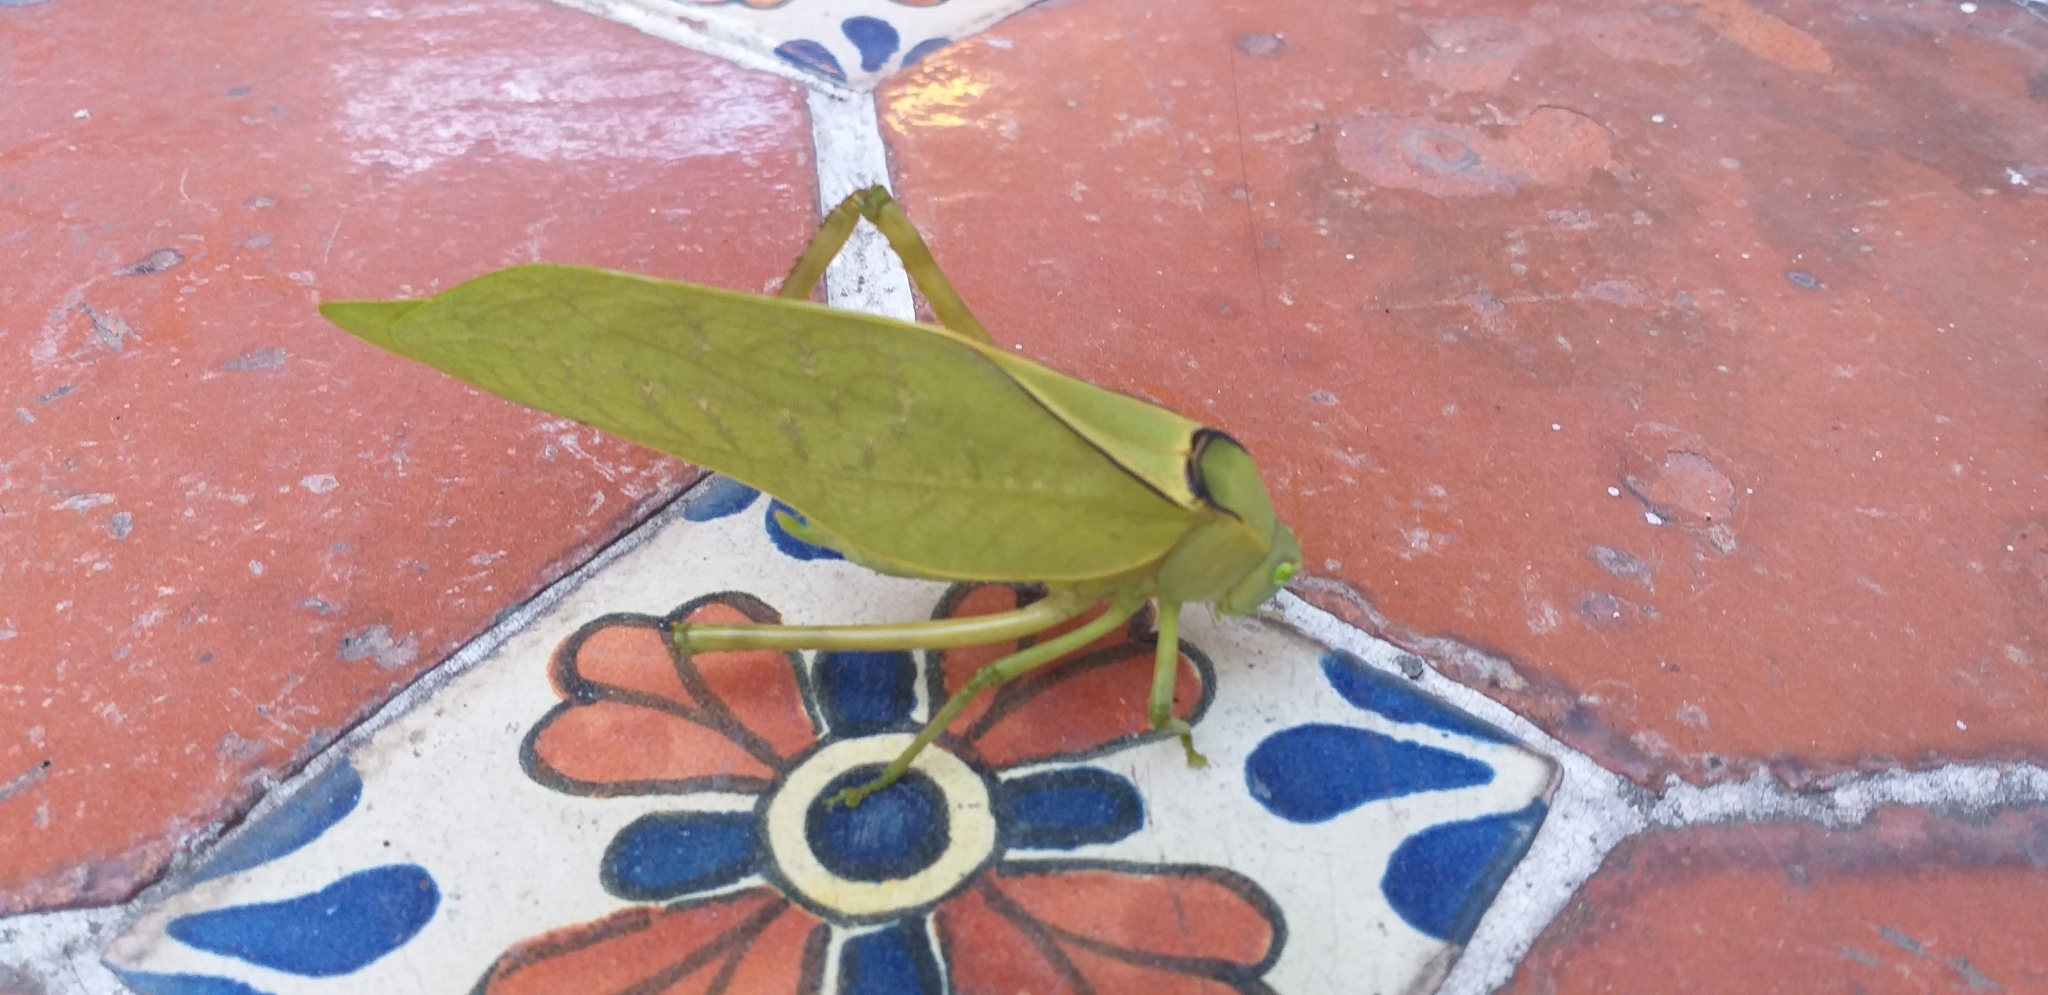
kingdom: Animalia
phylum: Arthropoda
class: Insecta
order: Orthoptera
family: Tettigoniidae
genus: Stilpnochlora
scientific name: Stilpnochlora azteca
